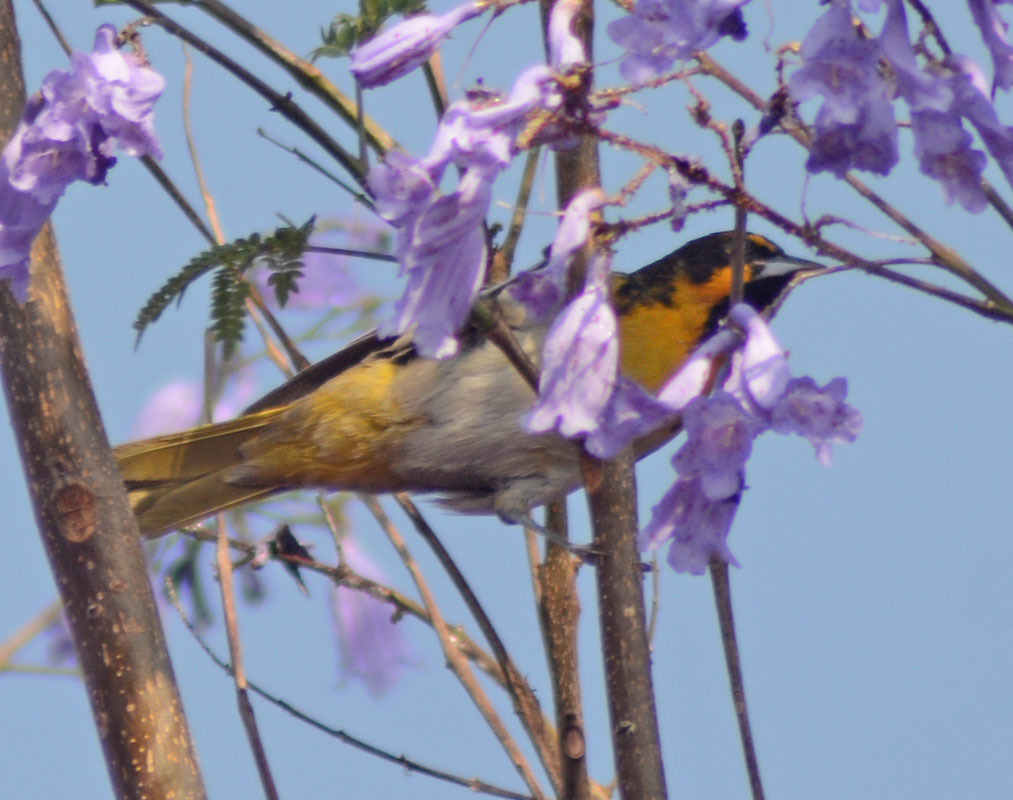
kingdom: Animalia
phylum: Chordata
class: Aves
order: Passeriformes
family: Icteridae
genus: Icterus
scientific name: Icterus abeillei
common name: Black-backed oriole
